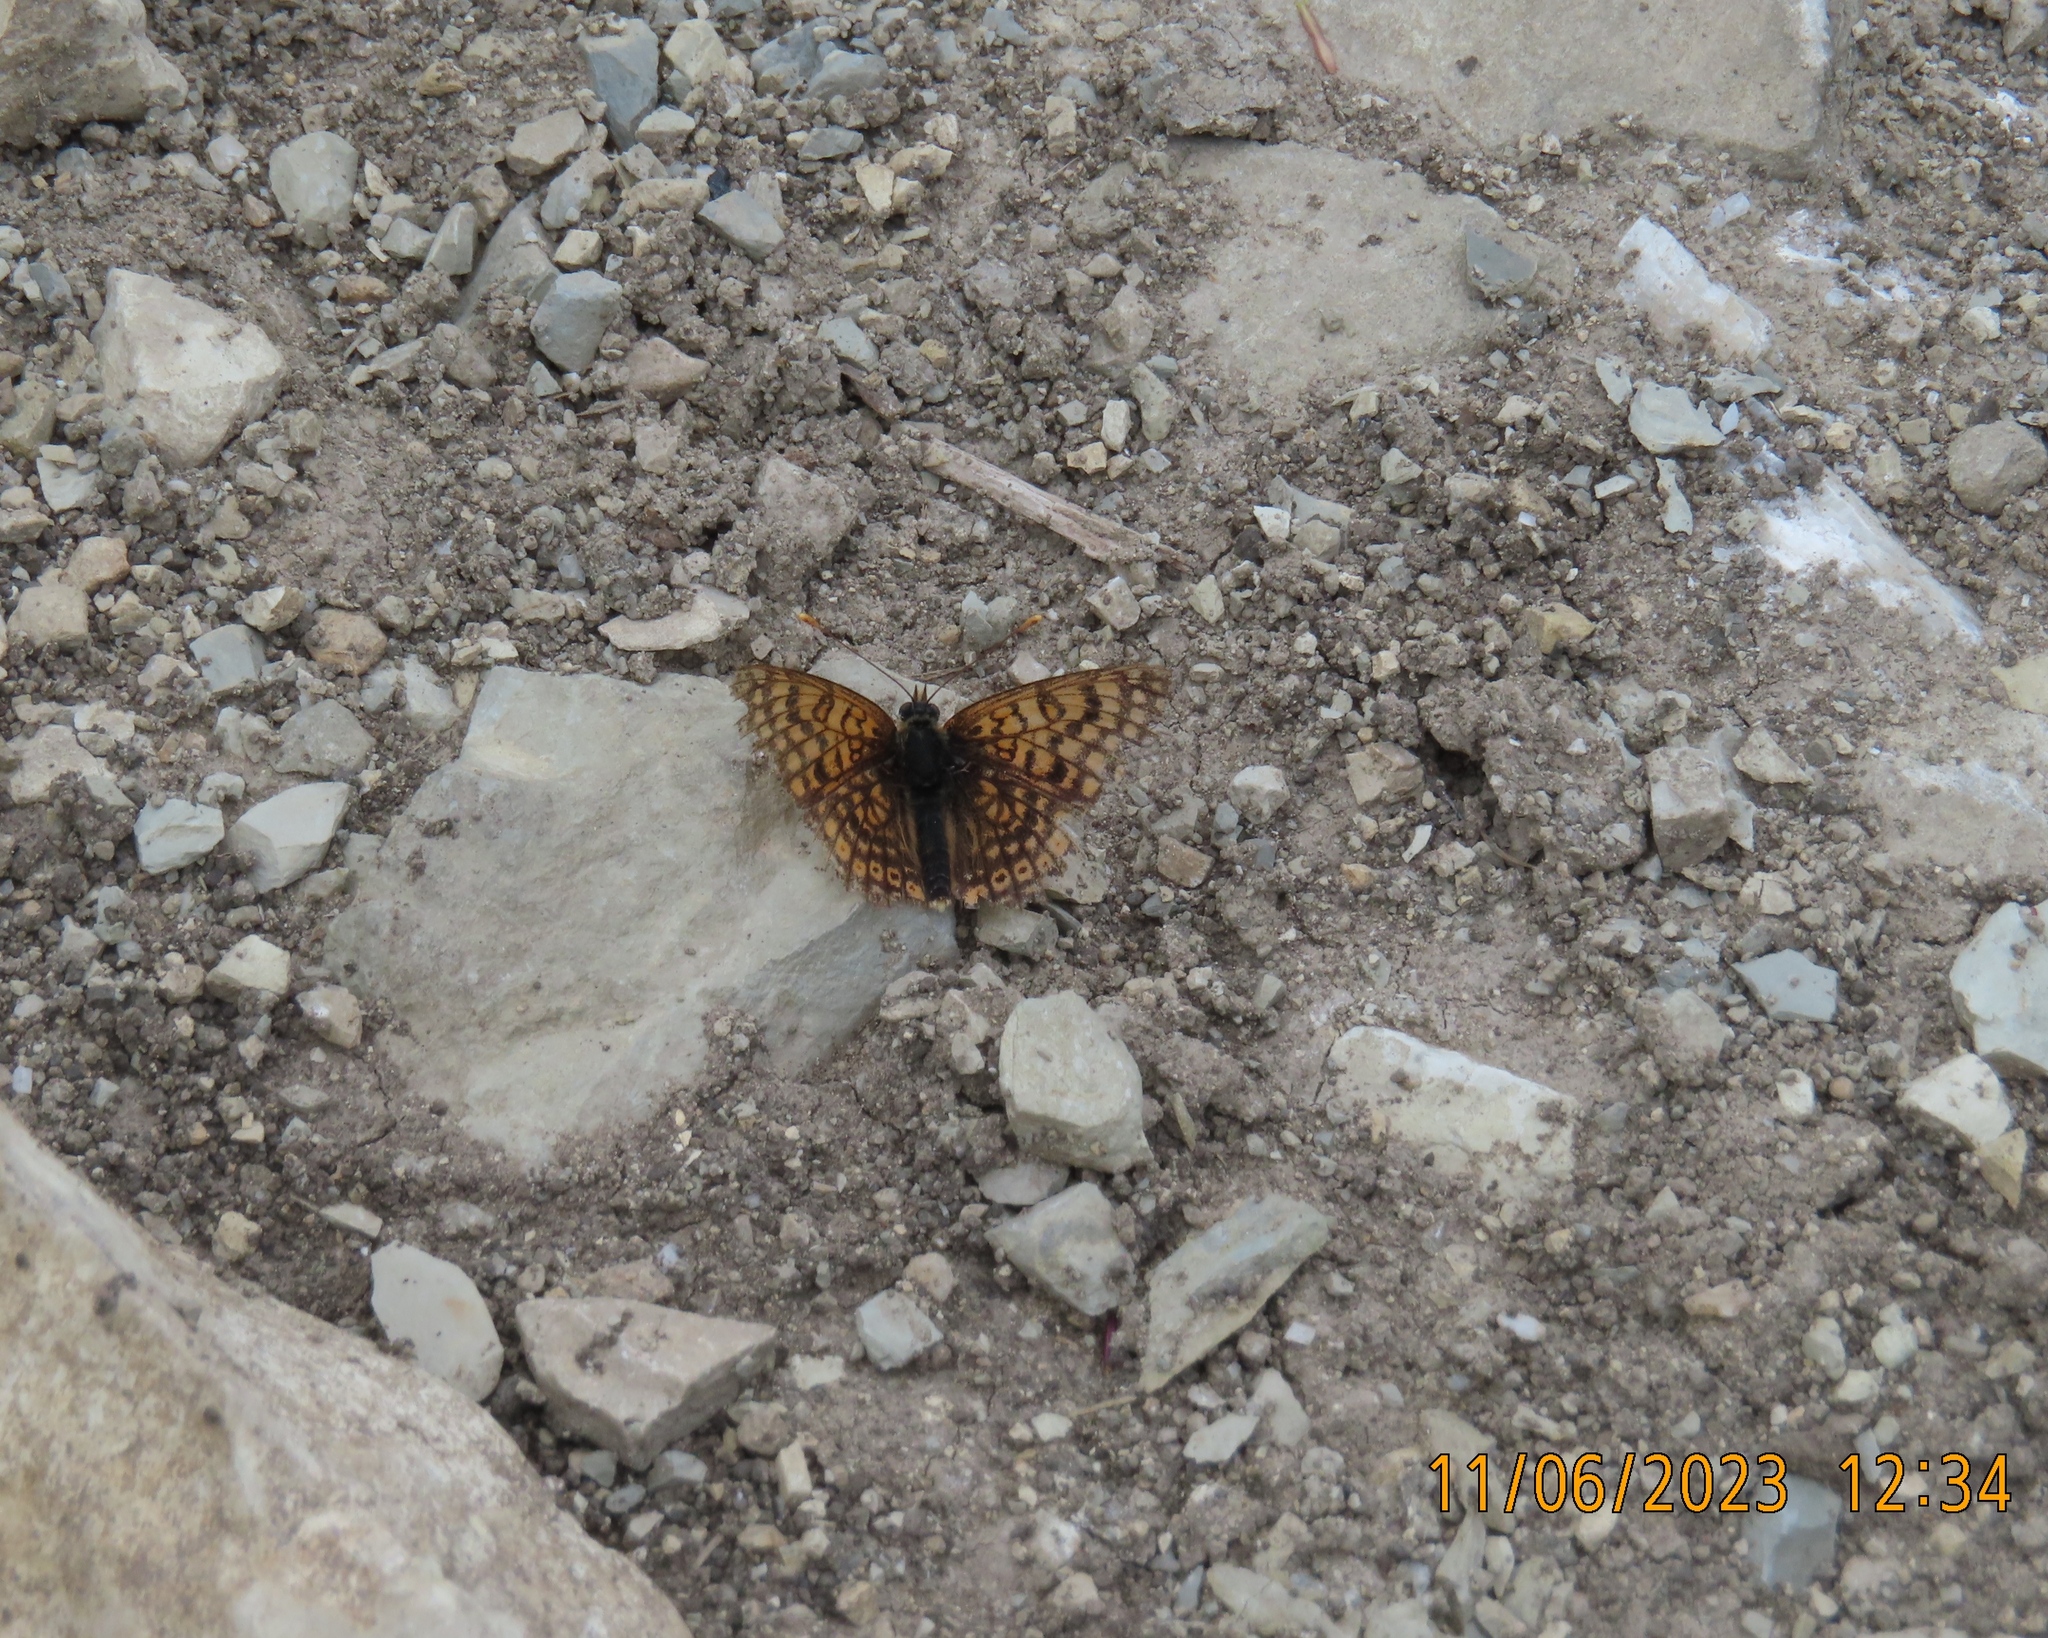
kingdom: Animalia
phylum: Arthropoda
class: Insecta
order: Lepidoptera
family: Nymphalidae
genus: Melitaea
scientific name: Melitaea cinxia
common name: Glanville fritillary
